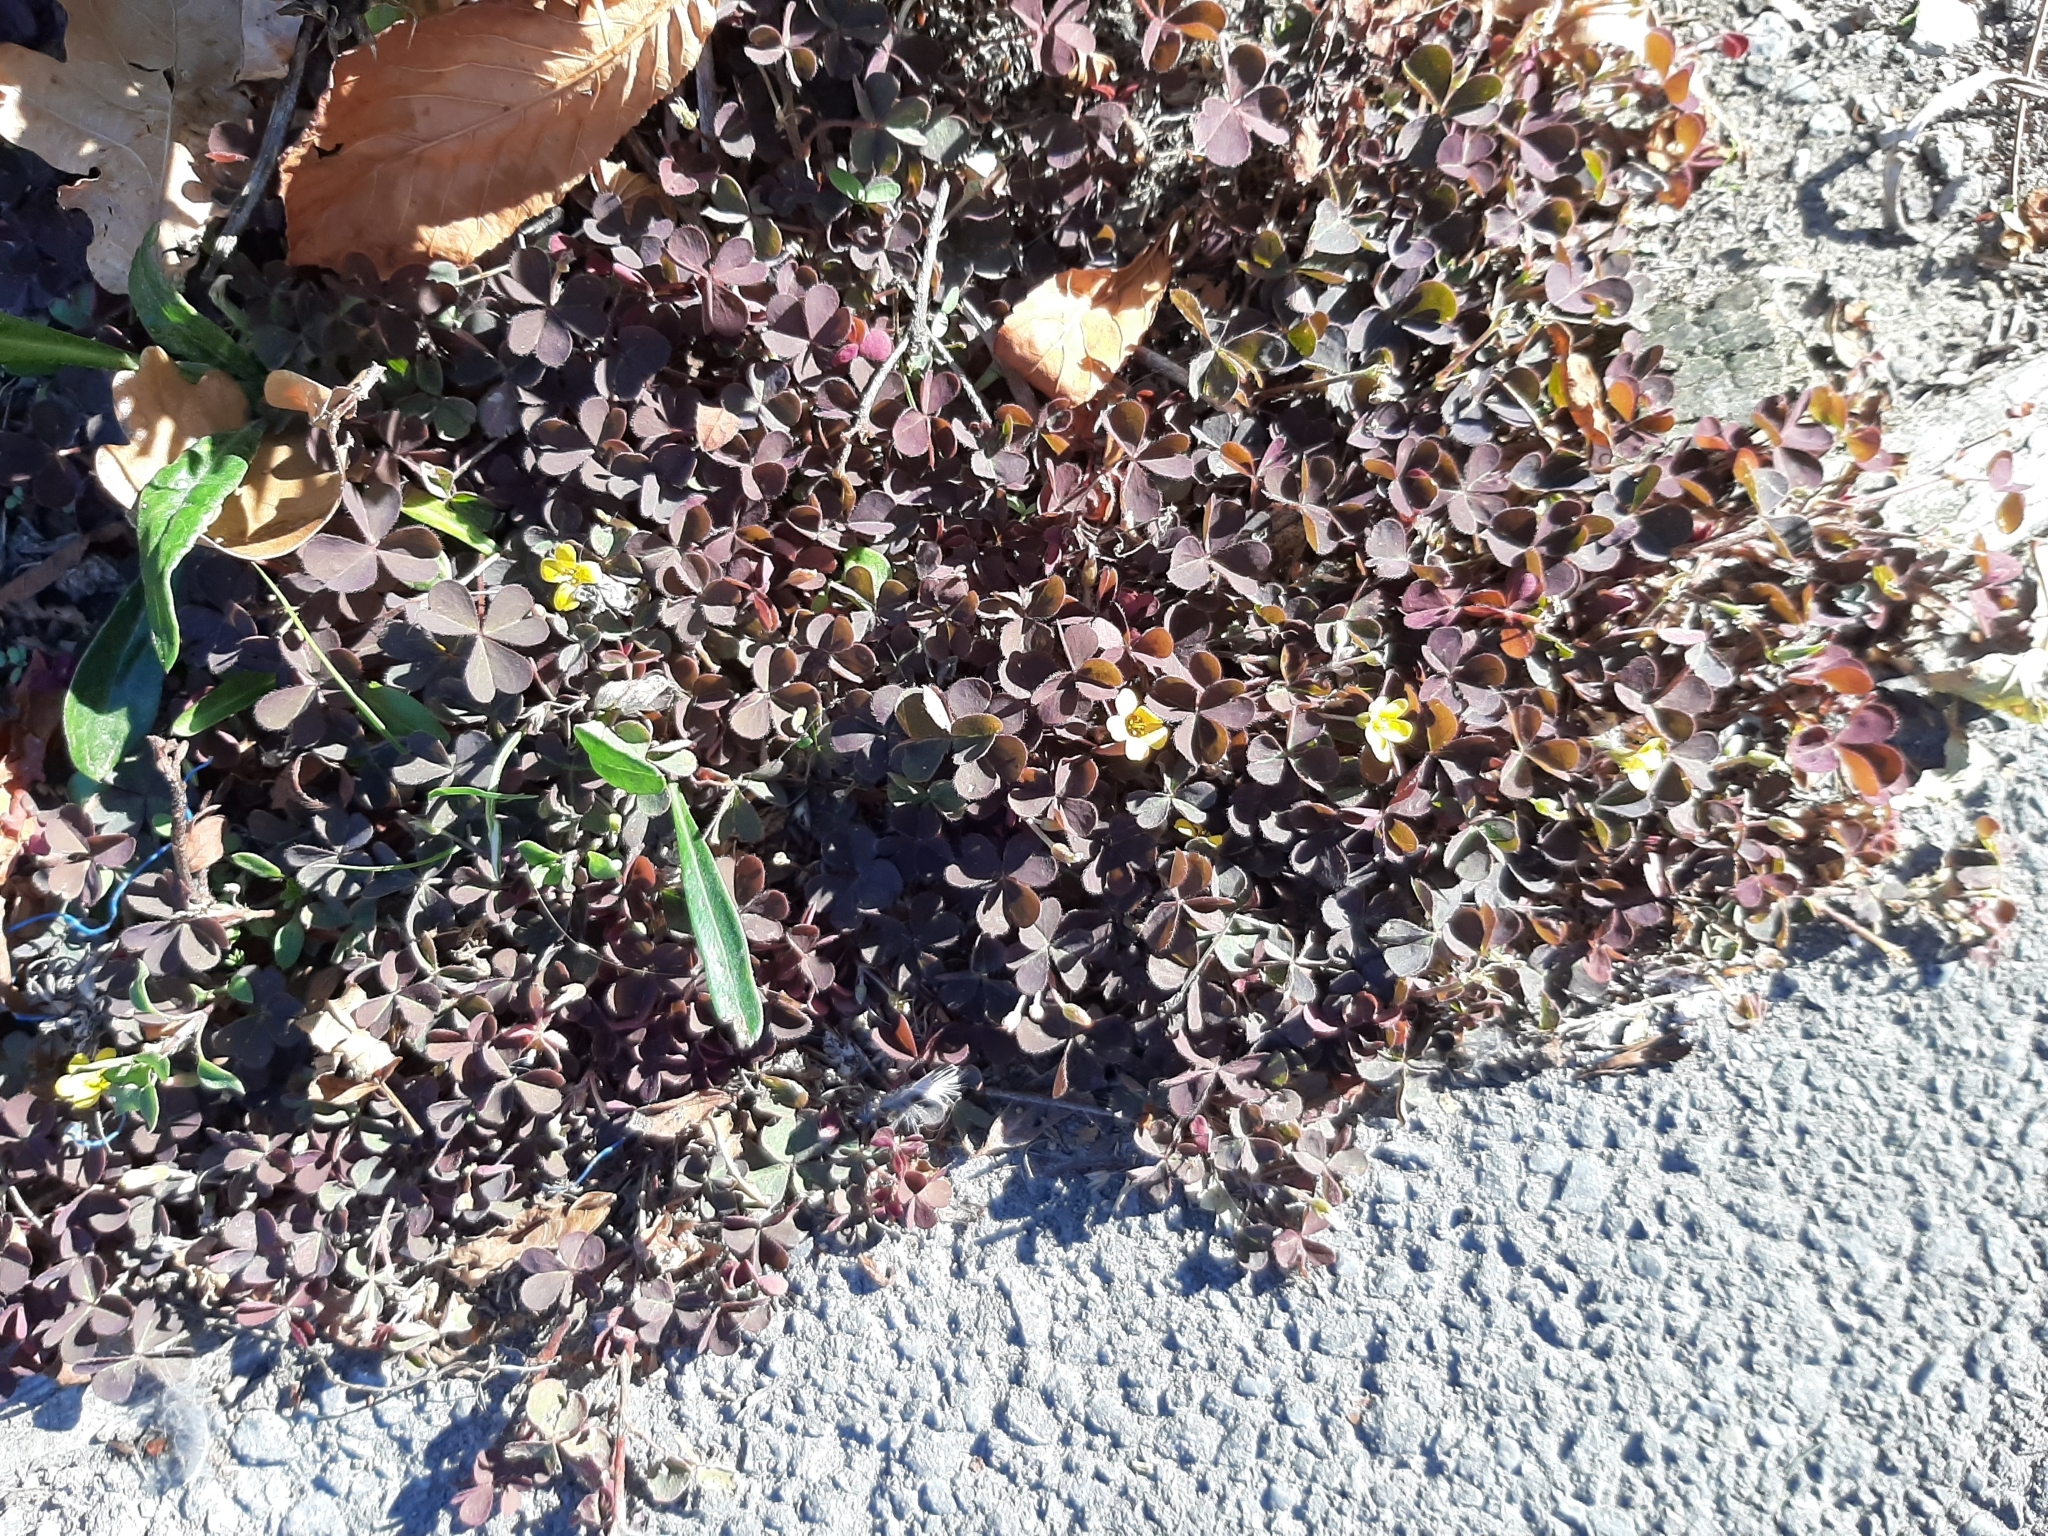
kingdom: Plantae
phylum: Tracheophyta
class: Magnoliopsida
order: Oxalidales
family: Oxalidaceae
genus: Oxalis
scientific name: Oxalis corniculata
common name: Procumbent yellow-sorrel
